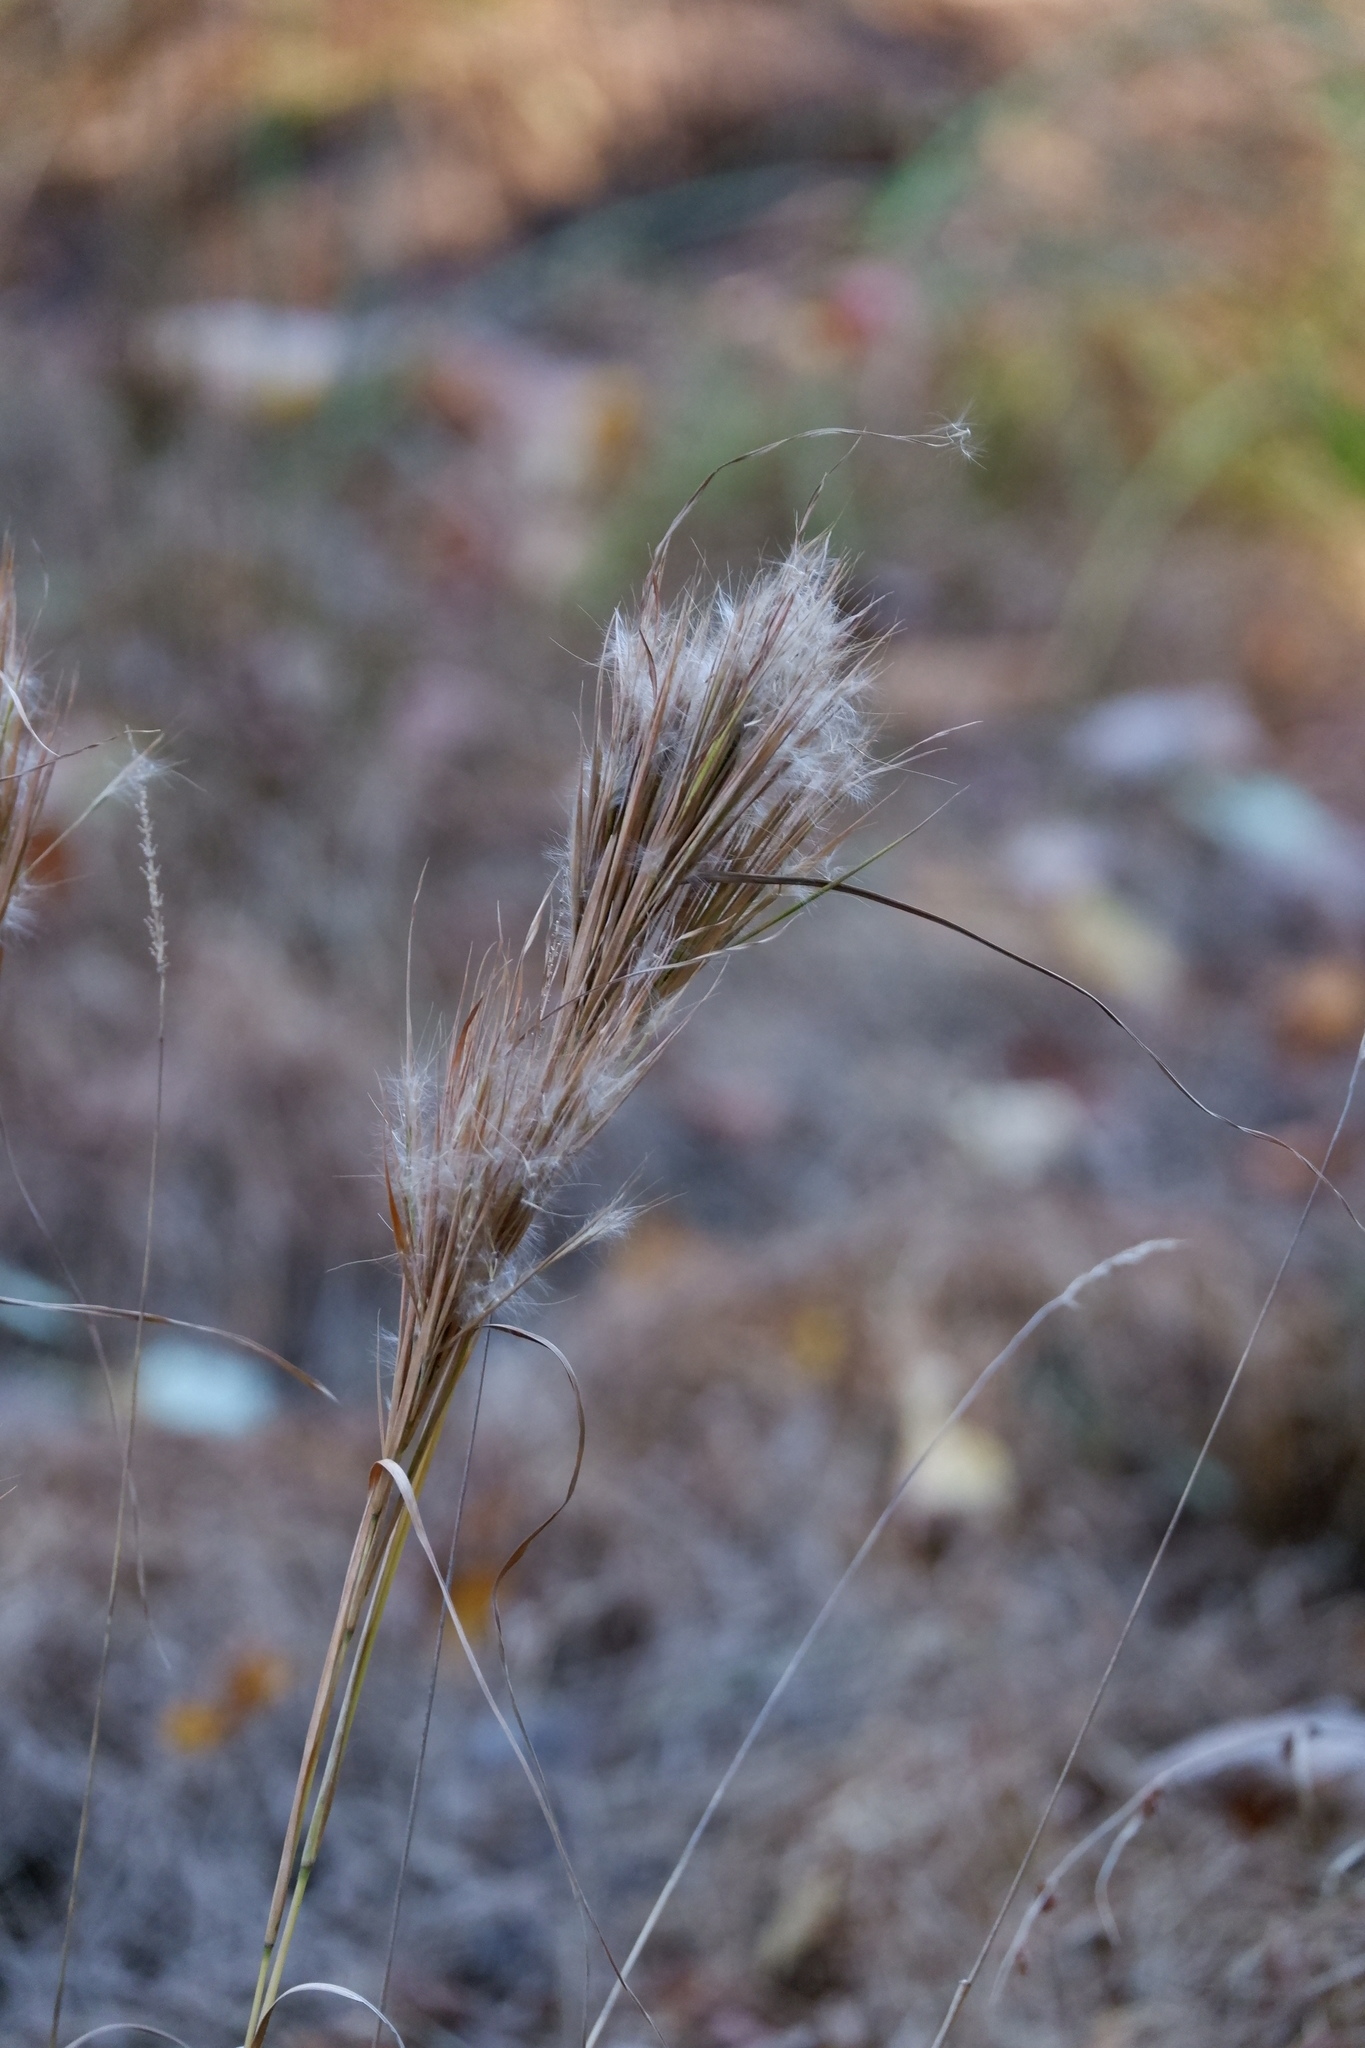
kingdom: Plantae
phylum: Tracheophyta
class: Liliopsida
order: Poales
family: Poaceae
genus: Andropogon
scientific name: Andropogon glomeratus
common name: Bushy beard grass
